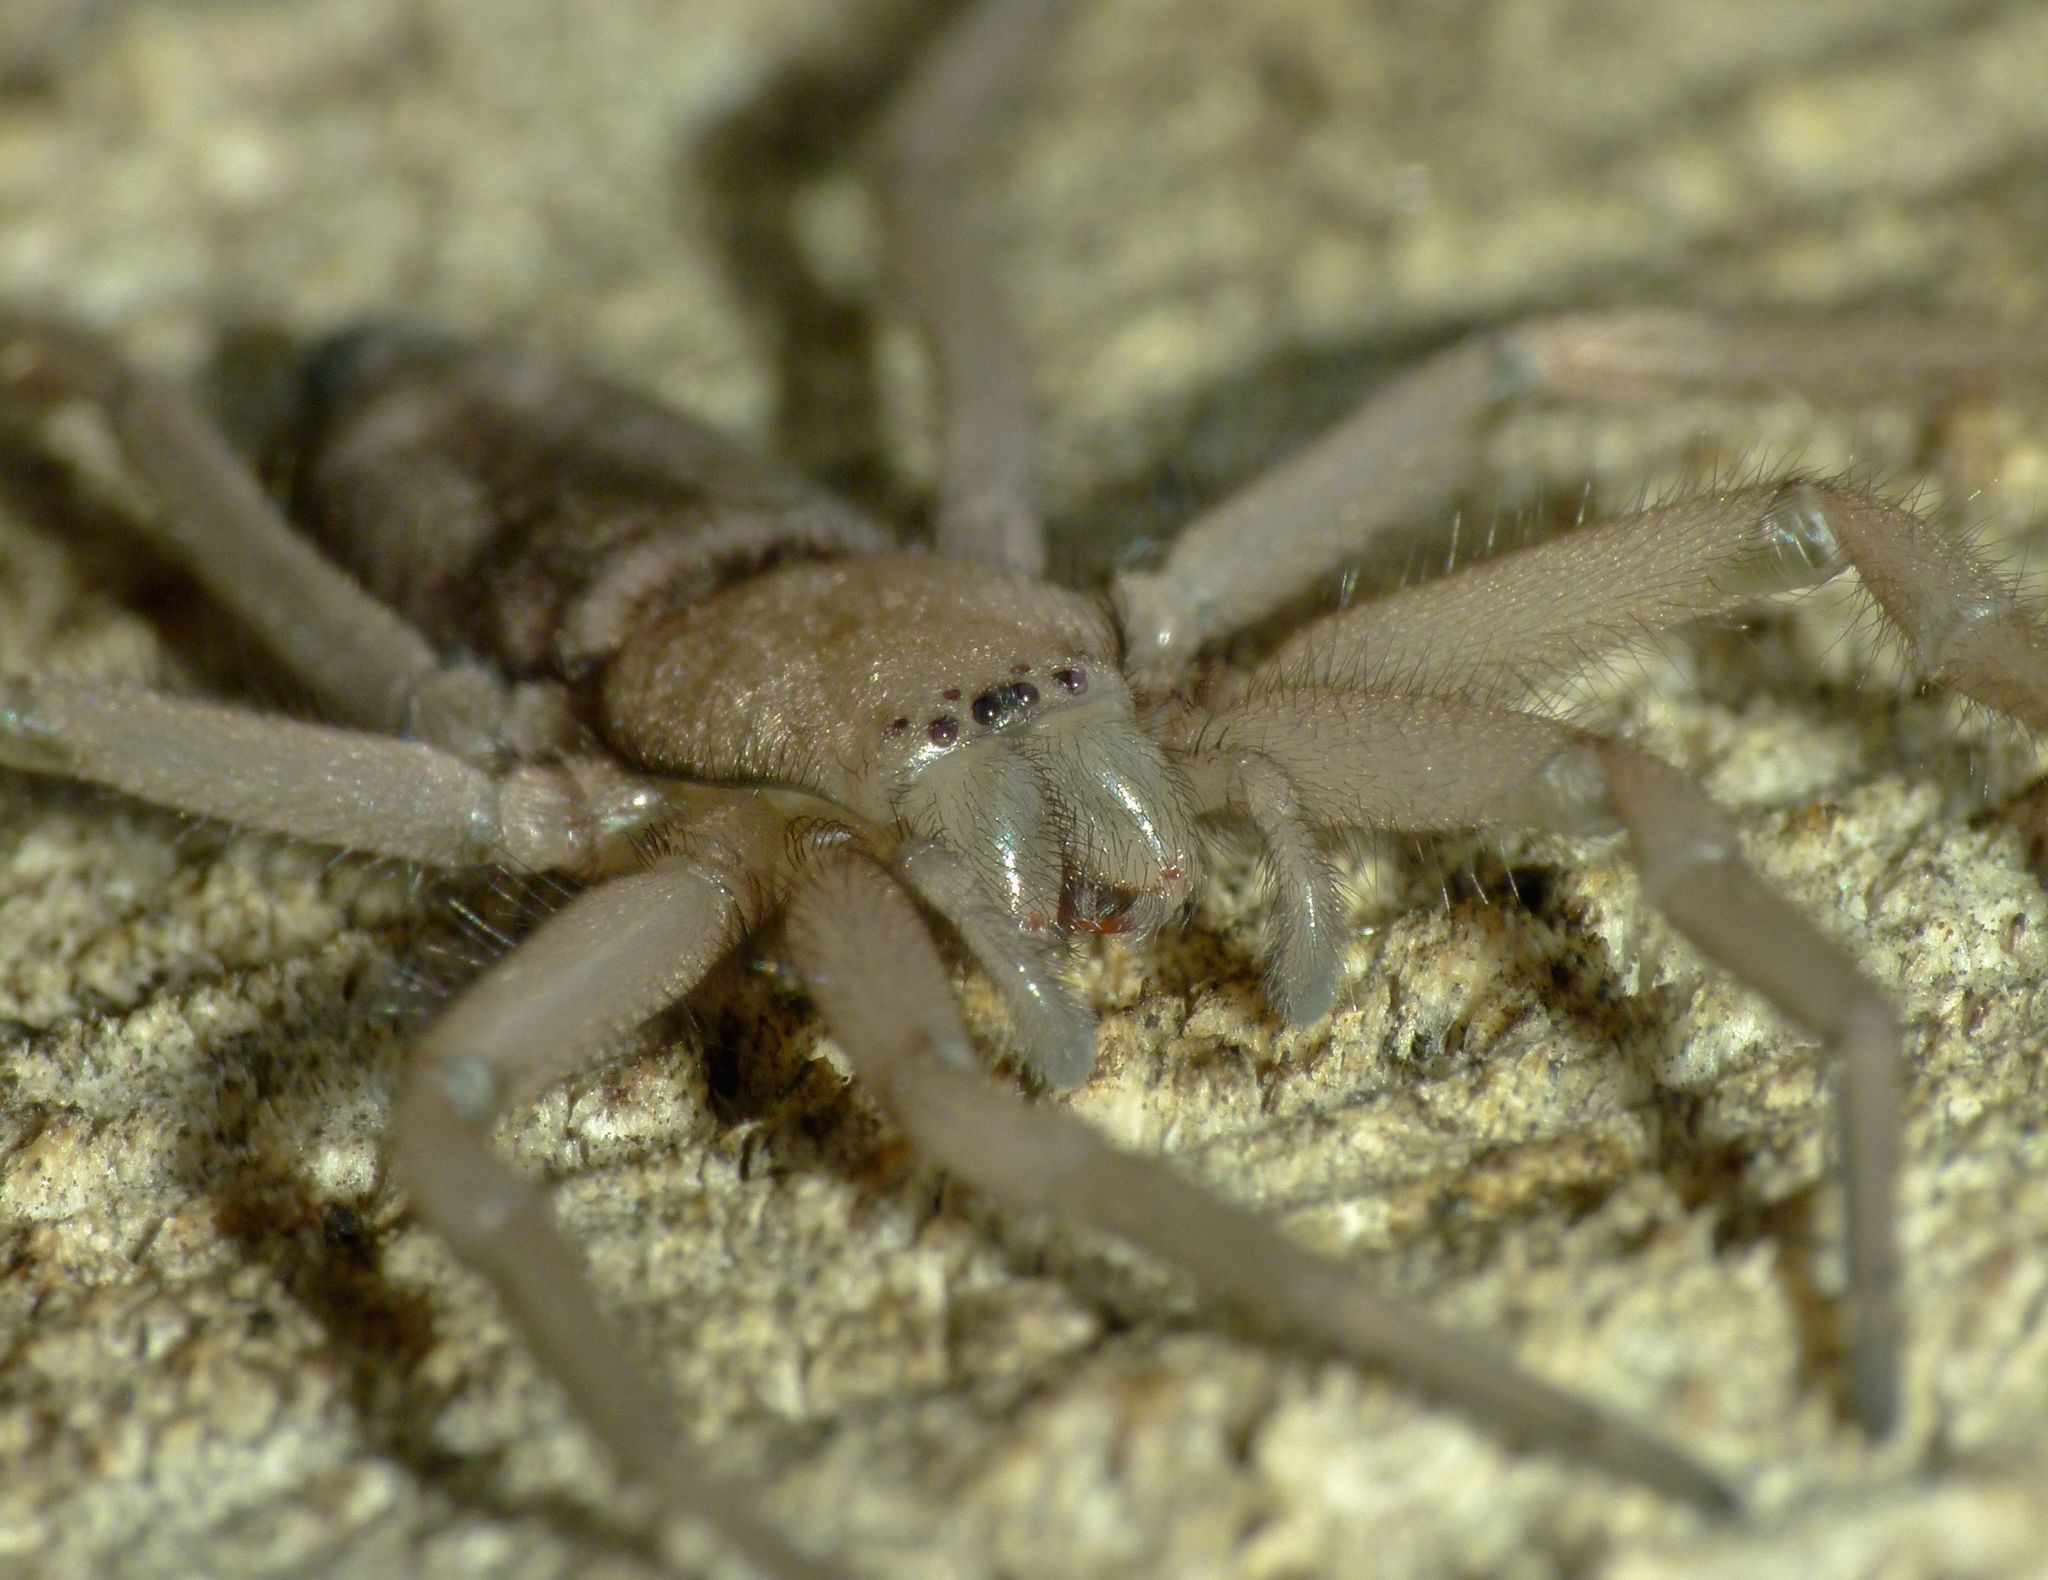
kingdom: Animalia
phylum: Arthropoda
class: Arachnida
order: Araneae
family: Trochanteriidae
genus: Hemicloea
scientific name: Hemicloea rogenhoferi
